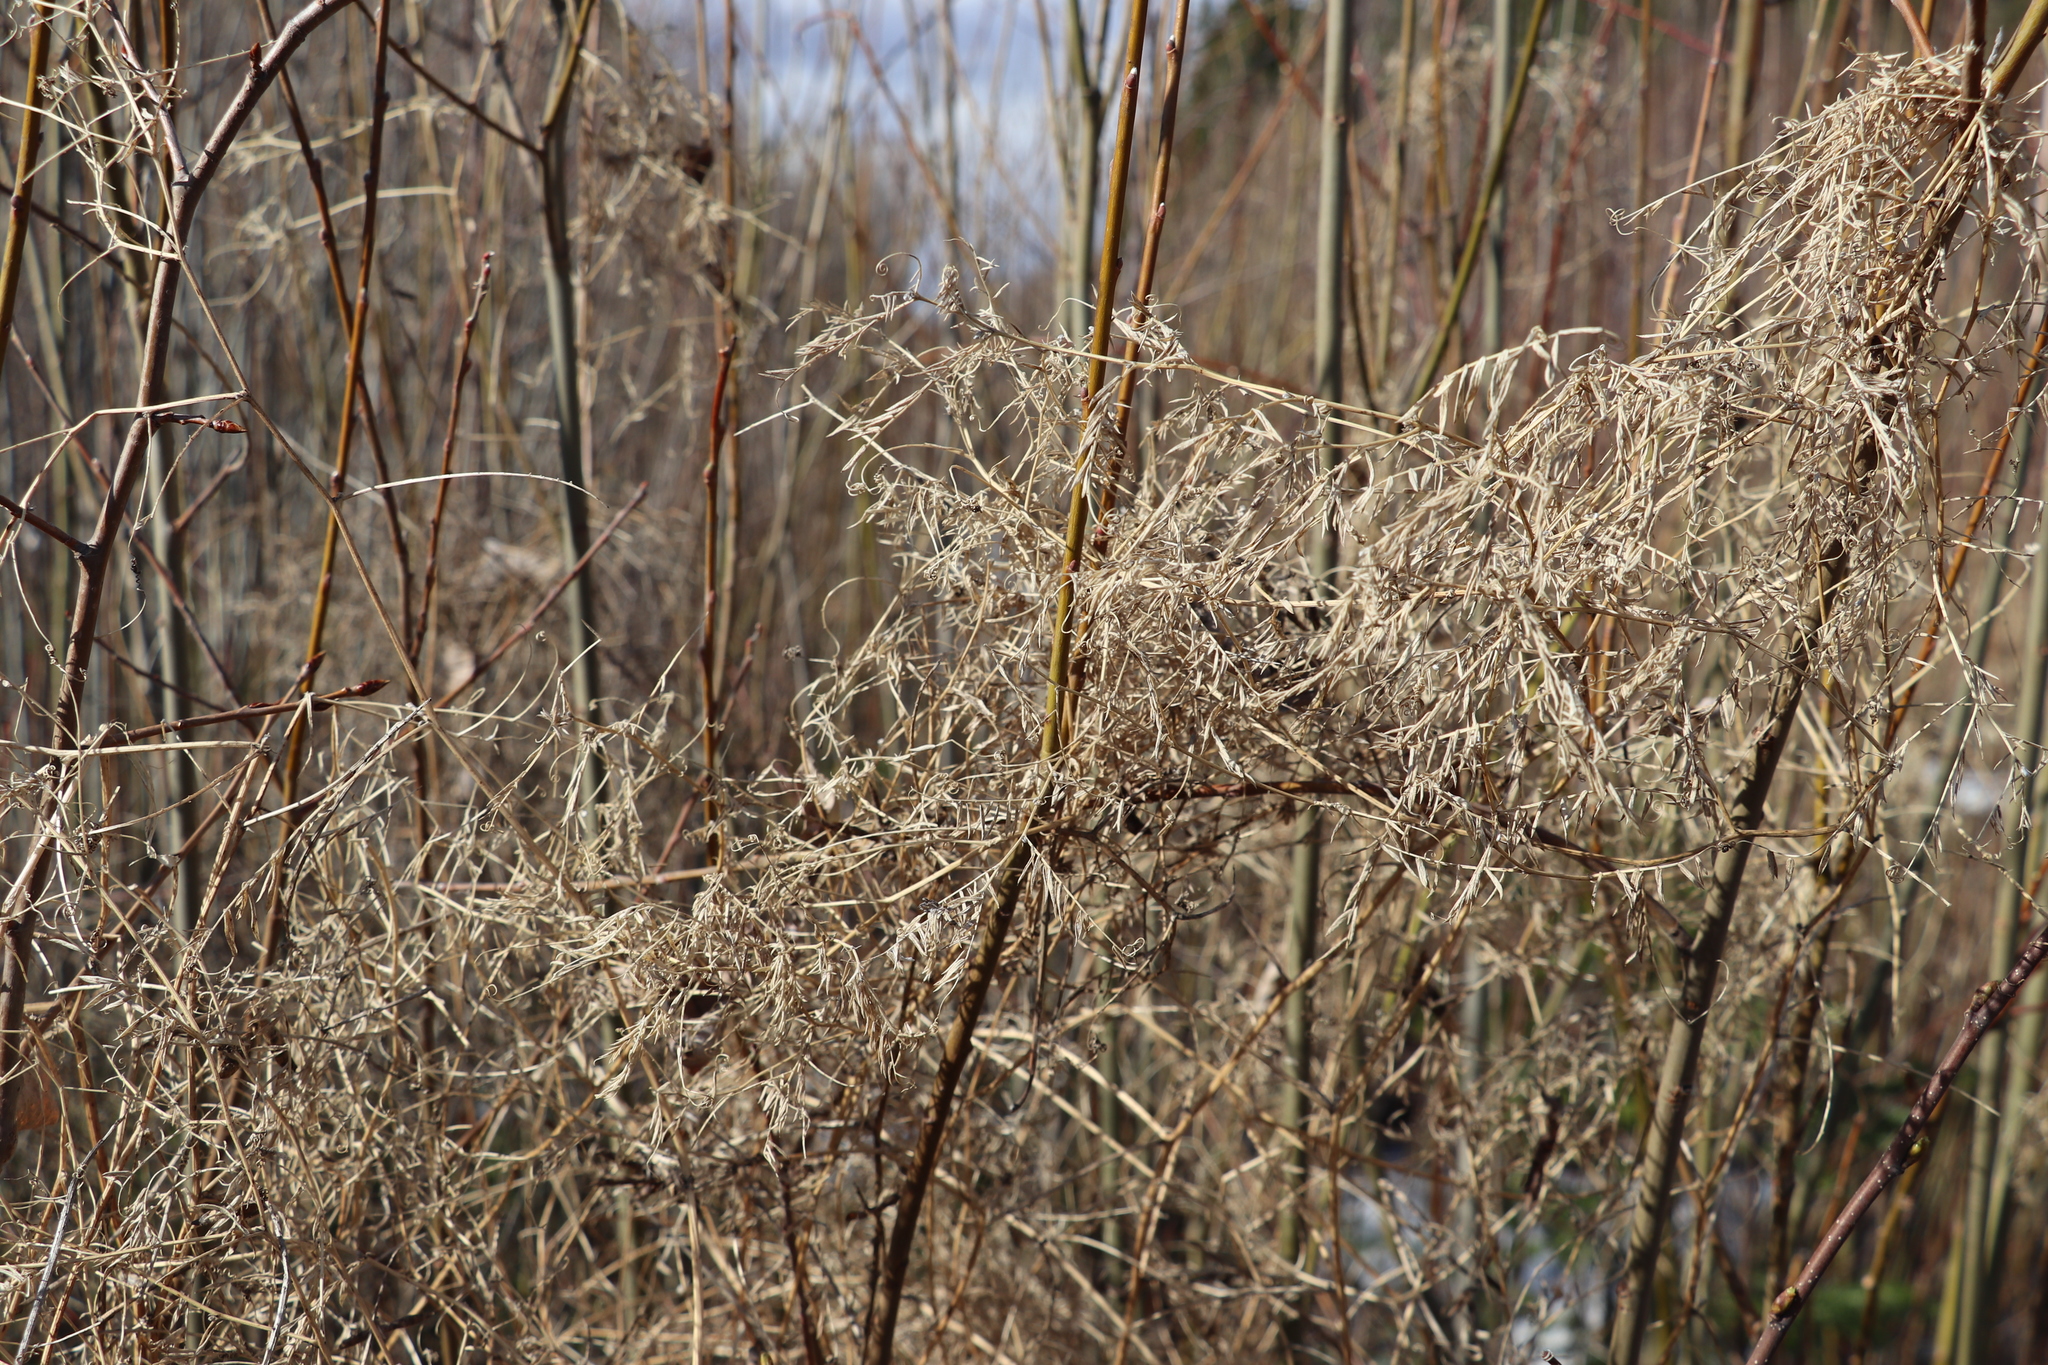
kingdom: Plantae
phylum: Tracheophyta
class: Magnoliopsida
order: Fabales
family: Fabaceae
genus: Vicia
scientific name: Vicia cracca
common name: Bird vetch
